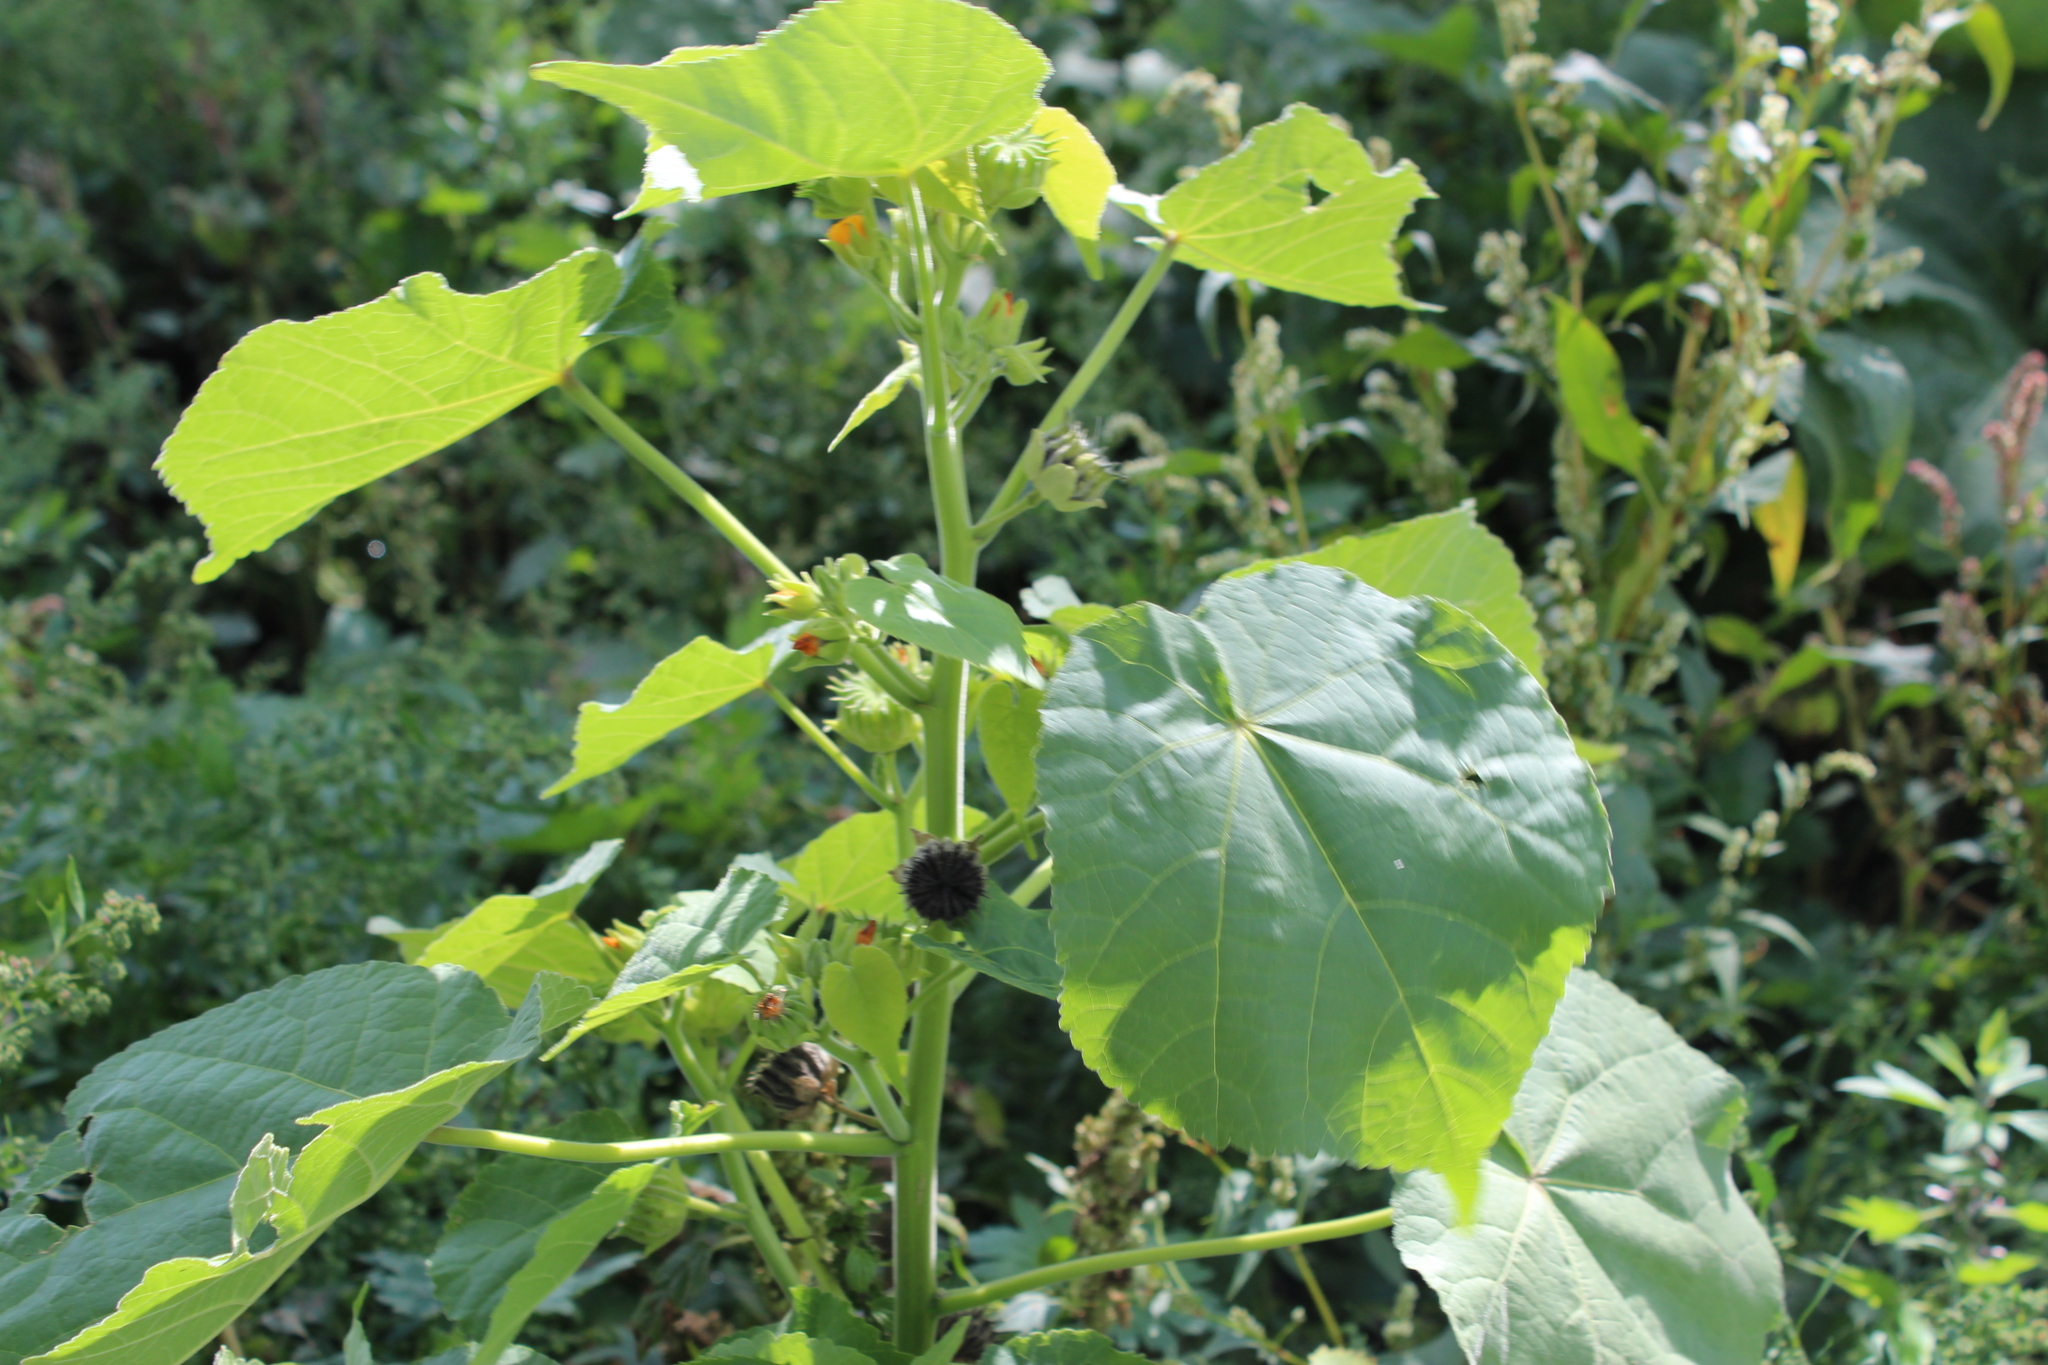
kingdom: Plantae
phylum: Tracheophyta
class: Magnoliopsida
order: Malvales
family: Malvaceae
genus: Abutilon
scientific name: Abutilon theophrasti
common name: Velvetleaf
